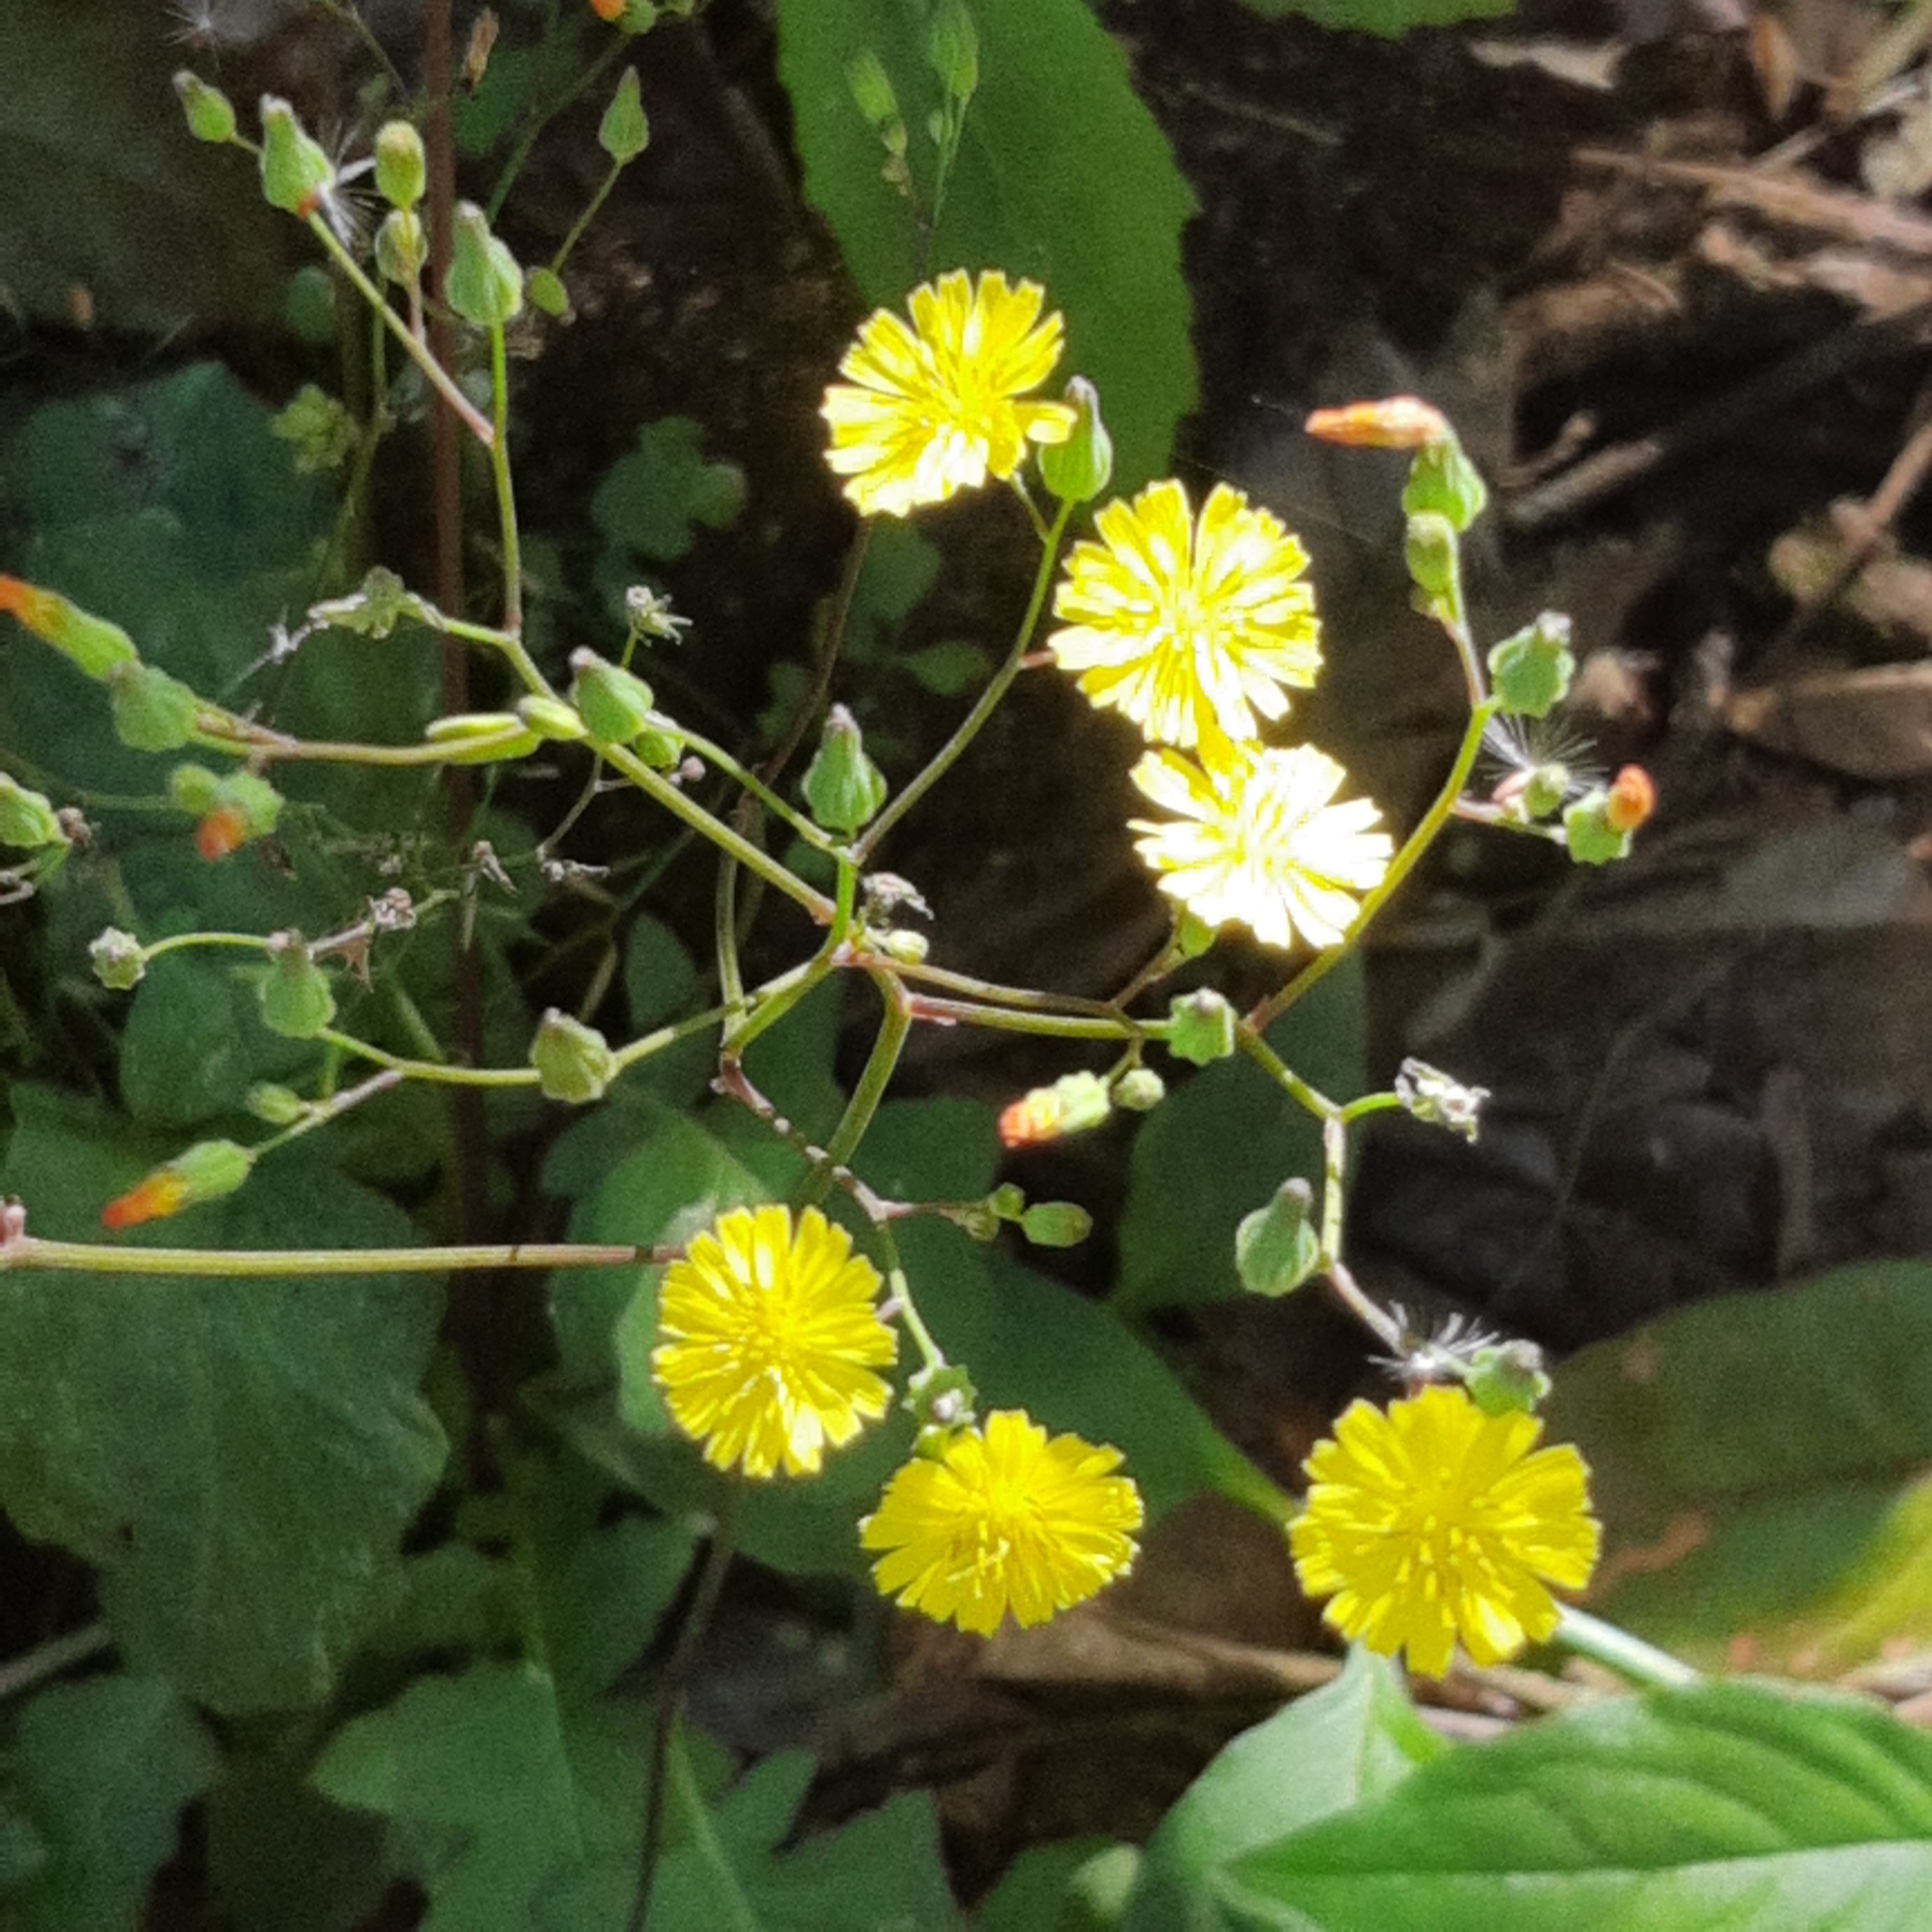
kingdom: Plantae
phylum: Tracheophyta
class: Magnoliopsida
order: Asterales
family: Asteraceae
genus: Youngia
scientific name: Youngia japonica
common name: Oriental false hawksbeard
